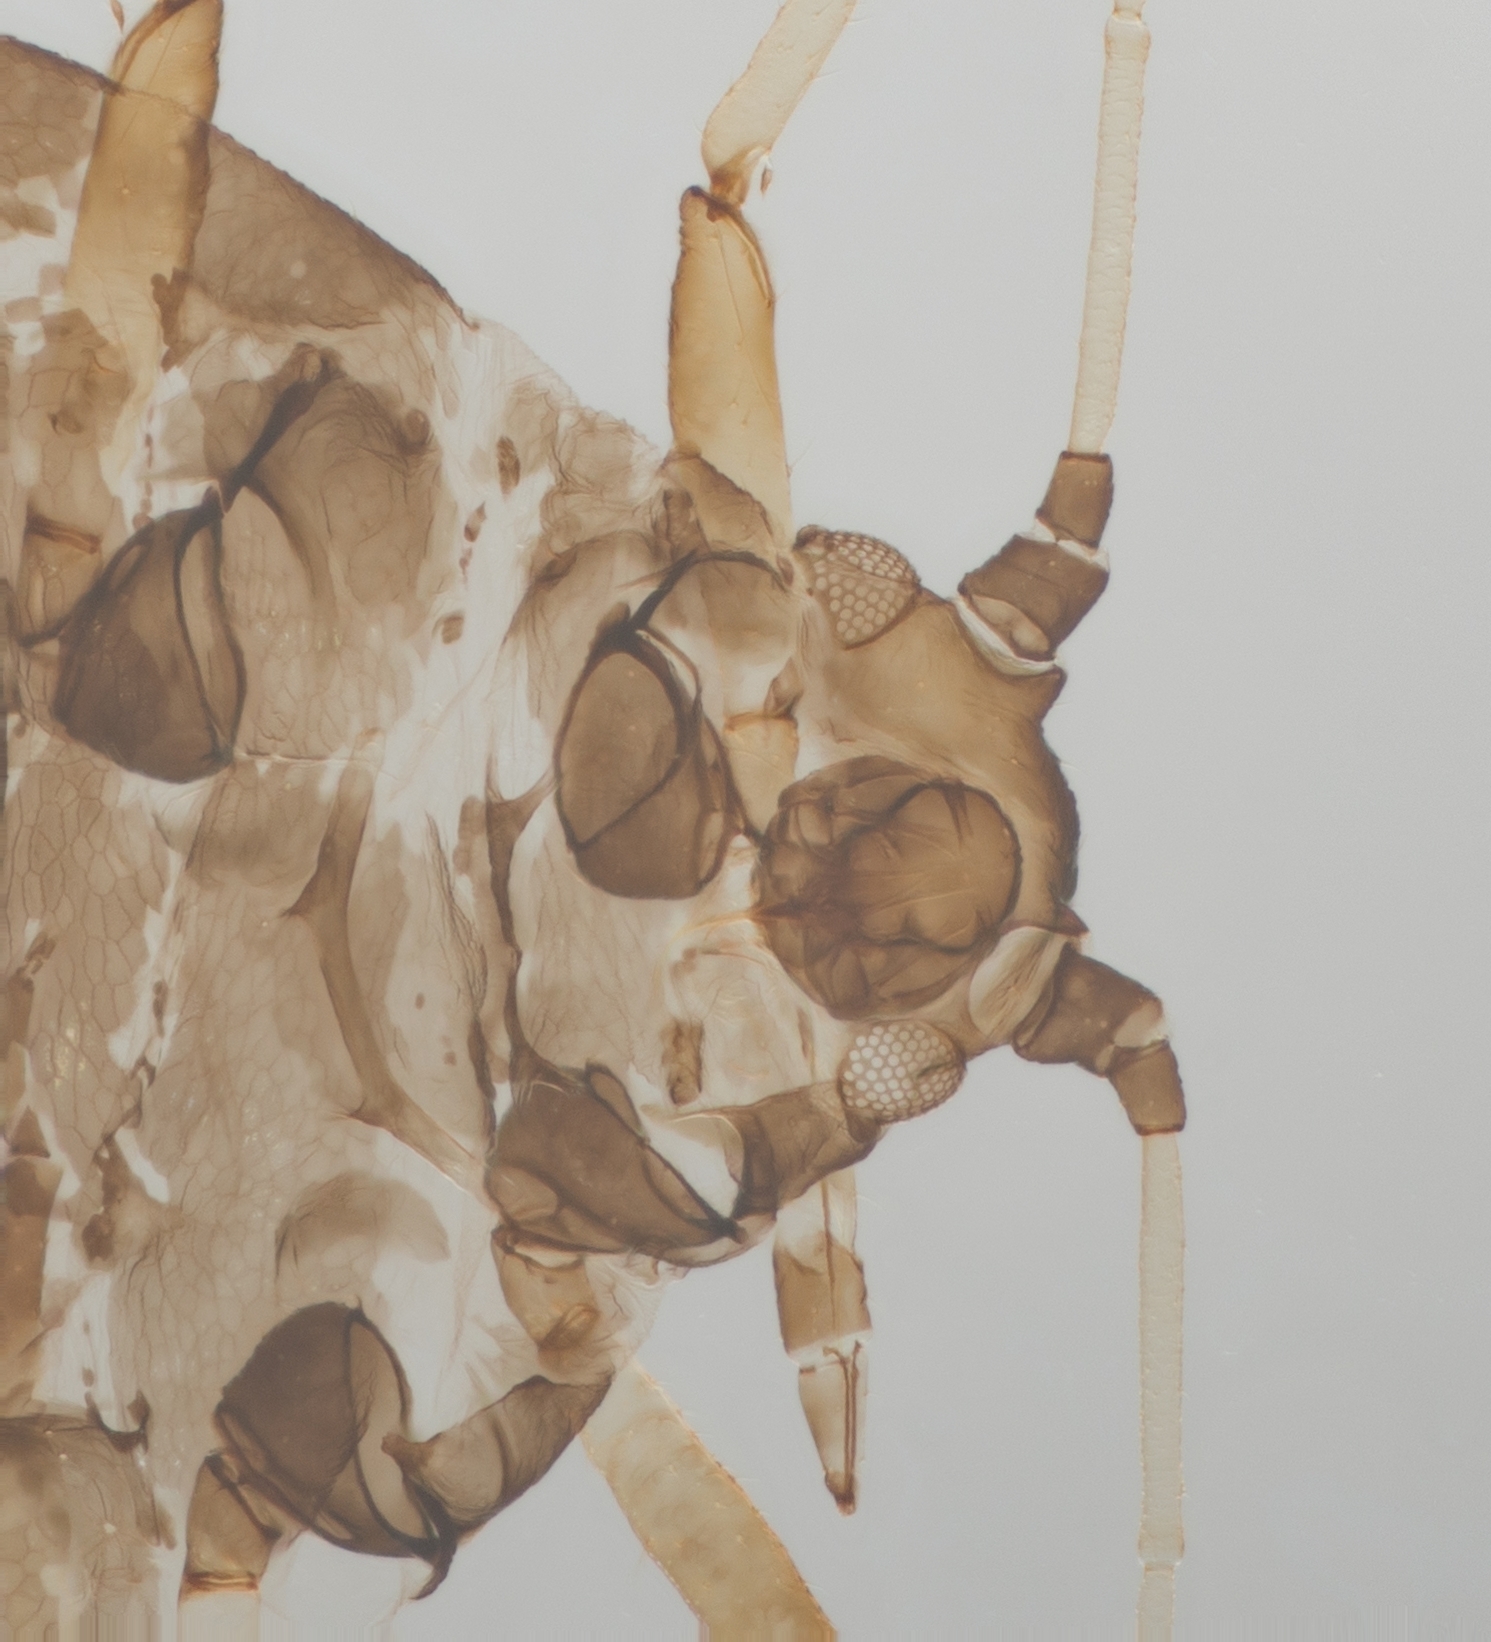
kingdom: Animalia
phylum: Arthropoda
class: Insecta
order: Hemiptera
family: Aphididae
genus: Aphis
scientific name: Aphis craccivora
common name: Cowpea aphid
